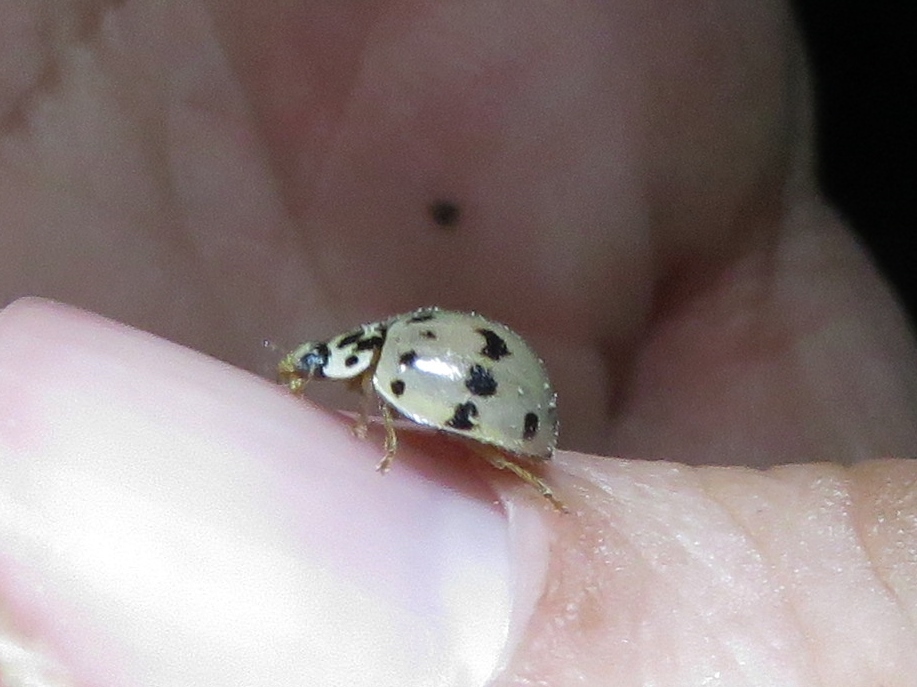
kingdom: Animalia
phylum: Arthropoda
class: Insecta
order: Coleoptera
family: Coccinellidae
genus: Olla
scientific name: Olla v-nigrum
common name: Ashy gray lady beetle
